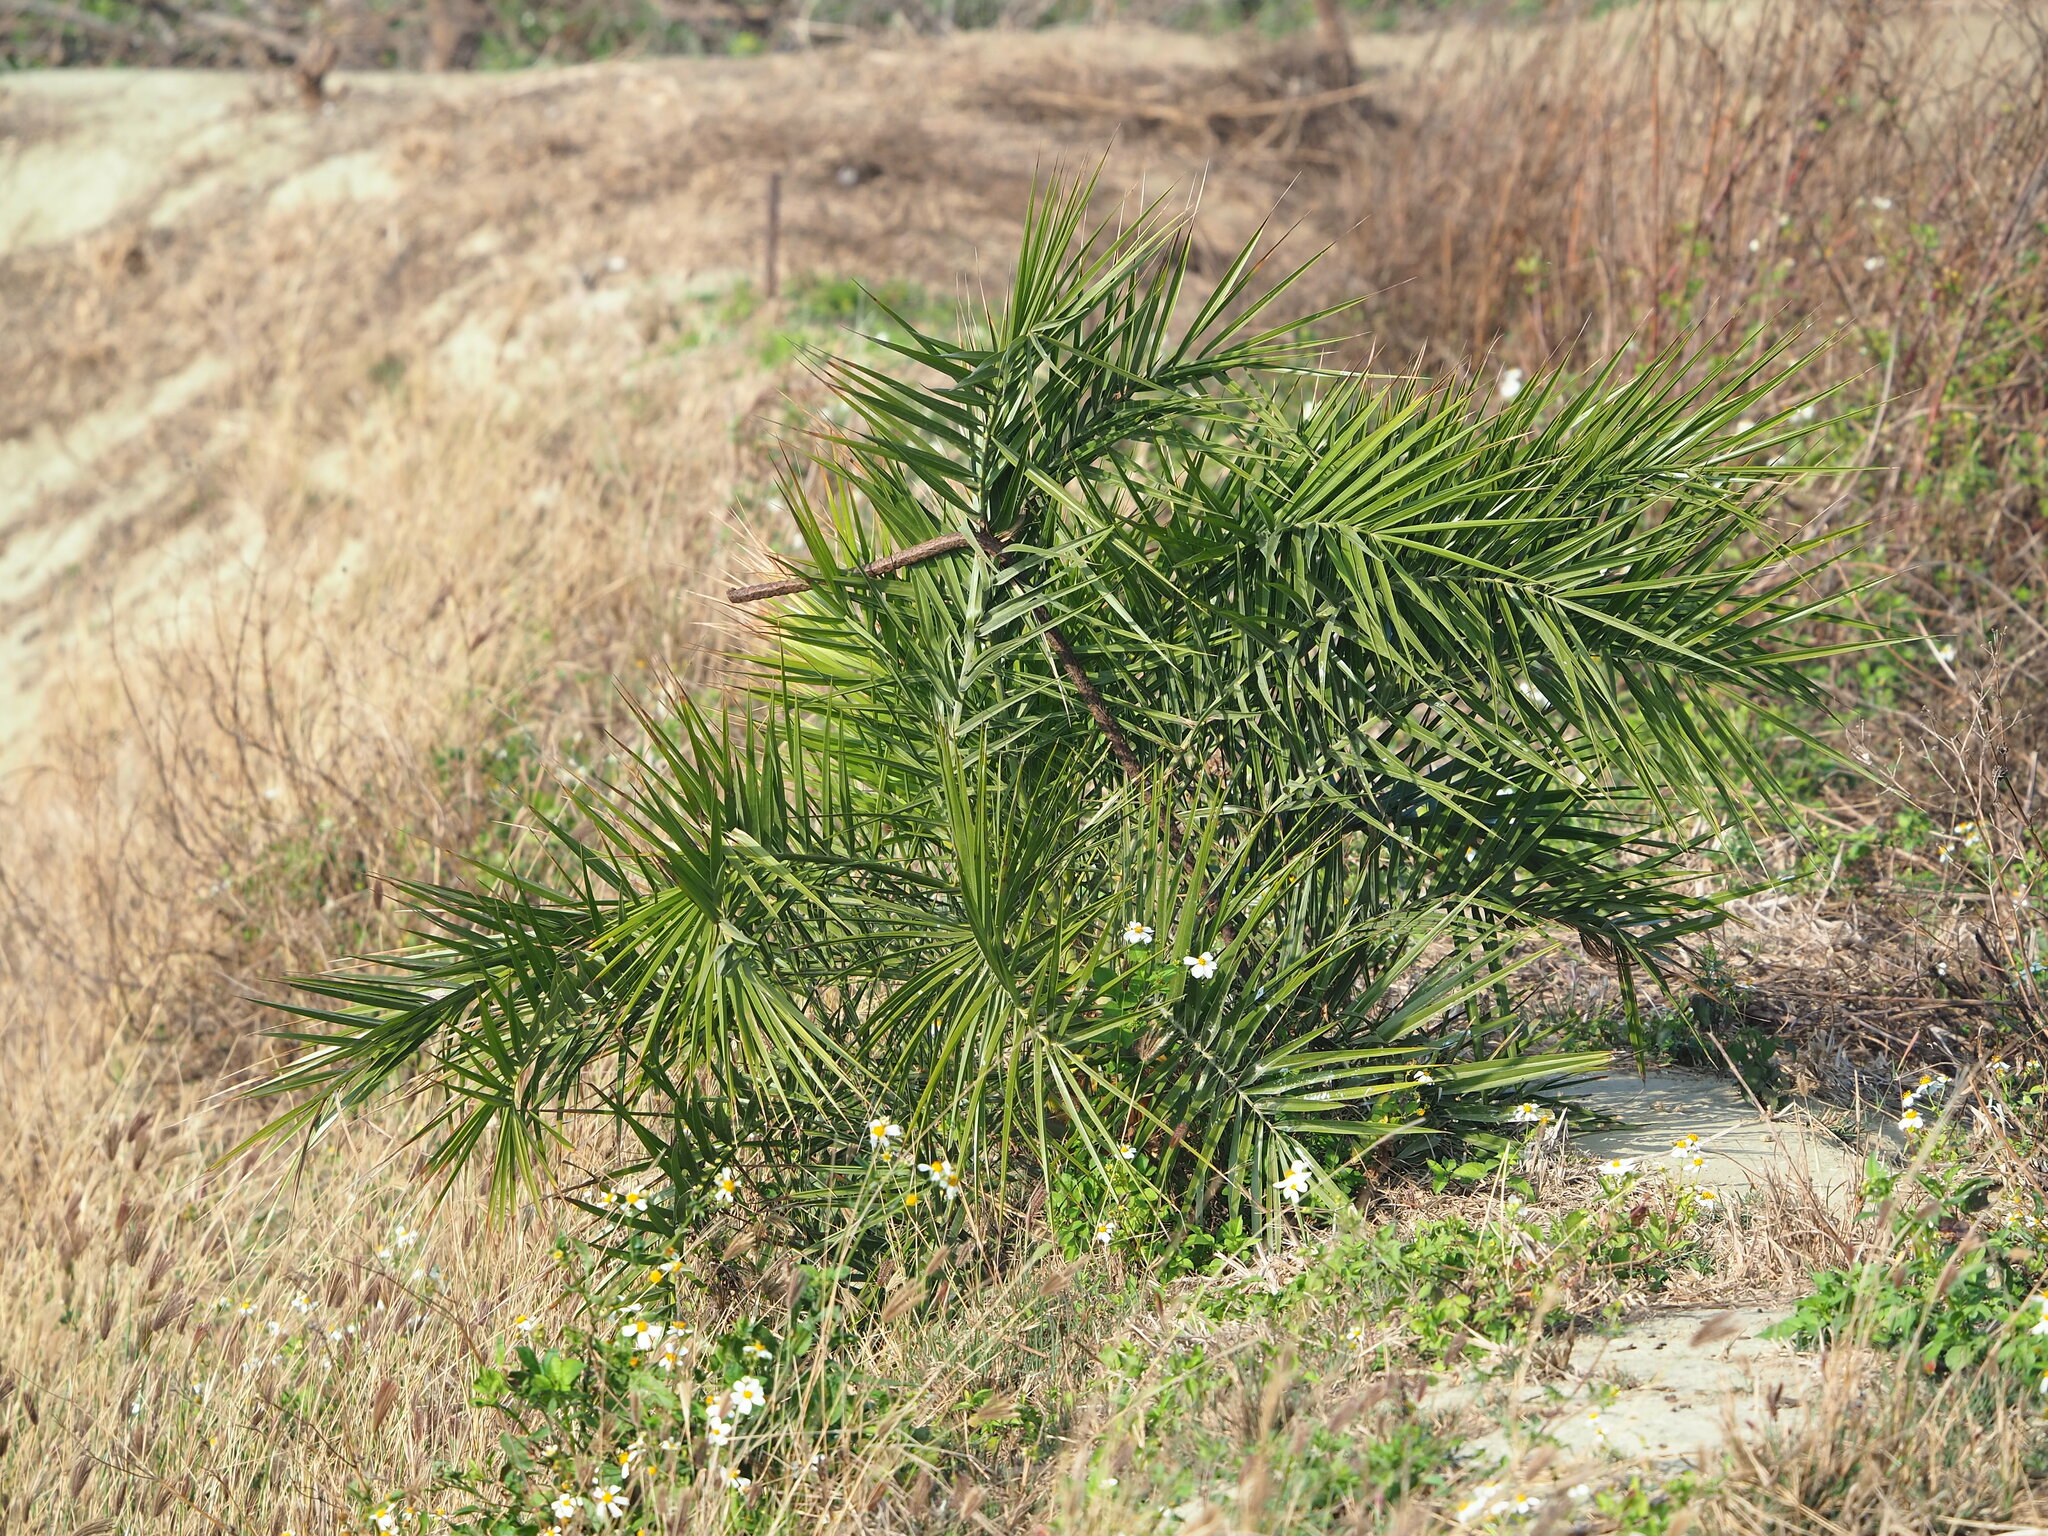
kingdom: Plantae
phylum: Tracheophyta
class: Liliopsida
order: Arecales
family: Arecaceae
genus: Phoenix
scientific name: Phoenix loureiroi
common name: Loureiro's palm
